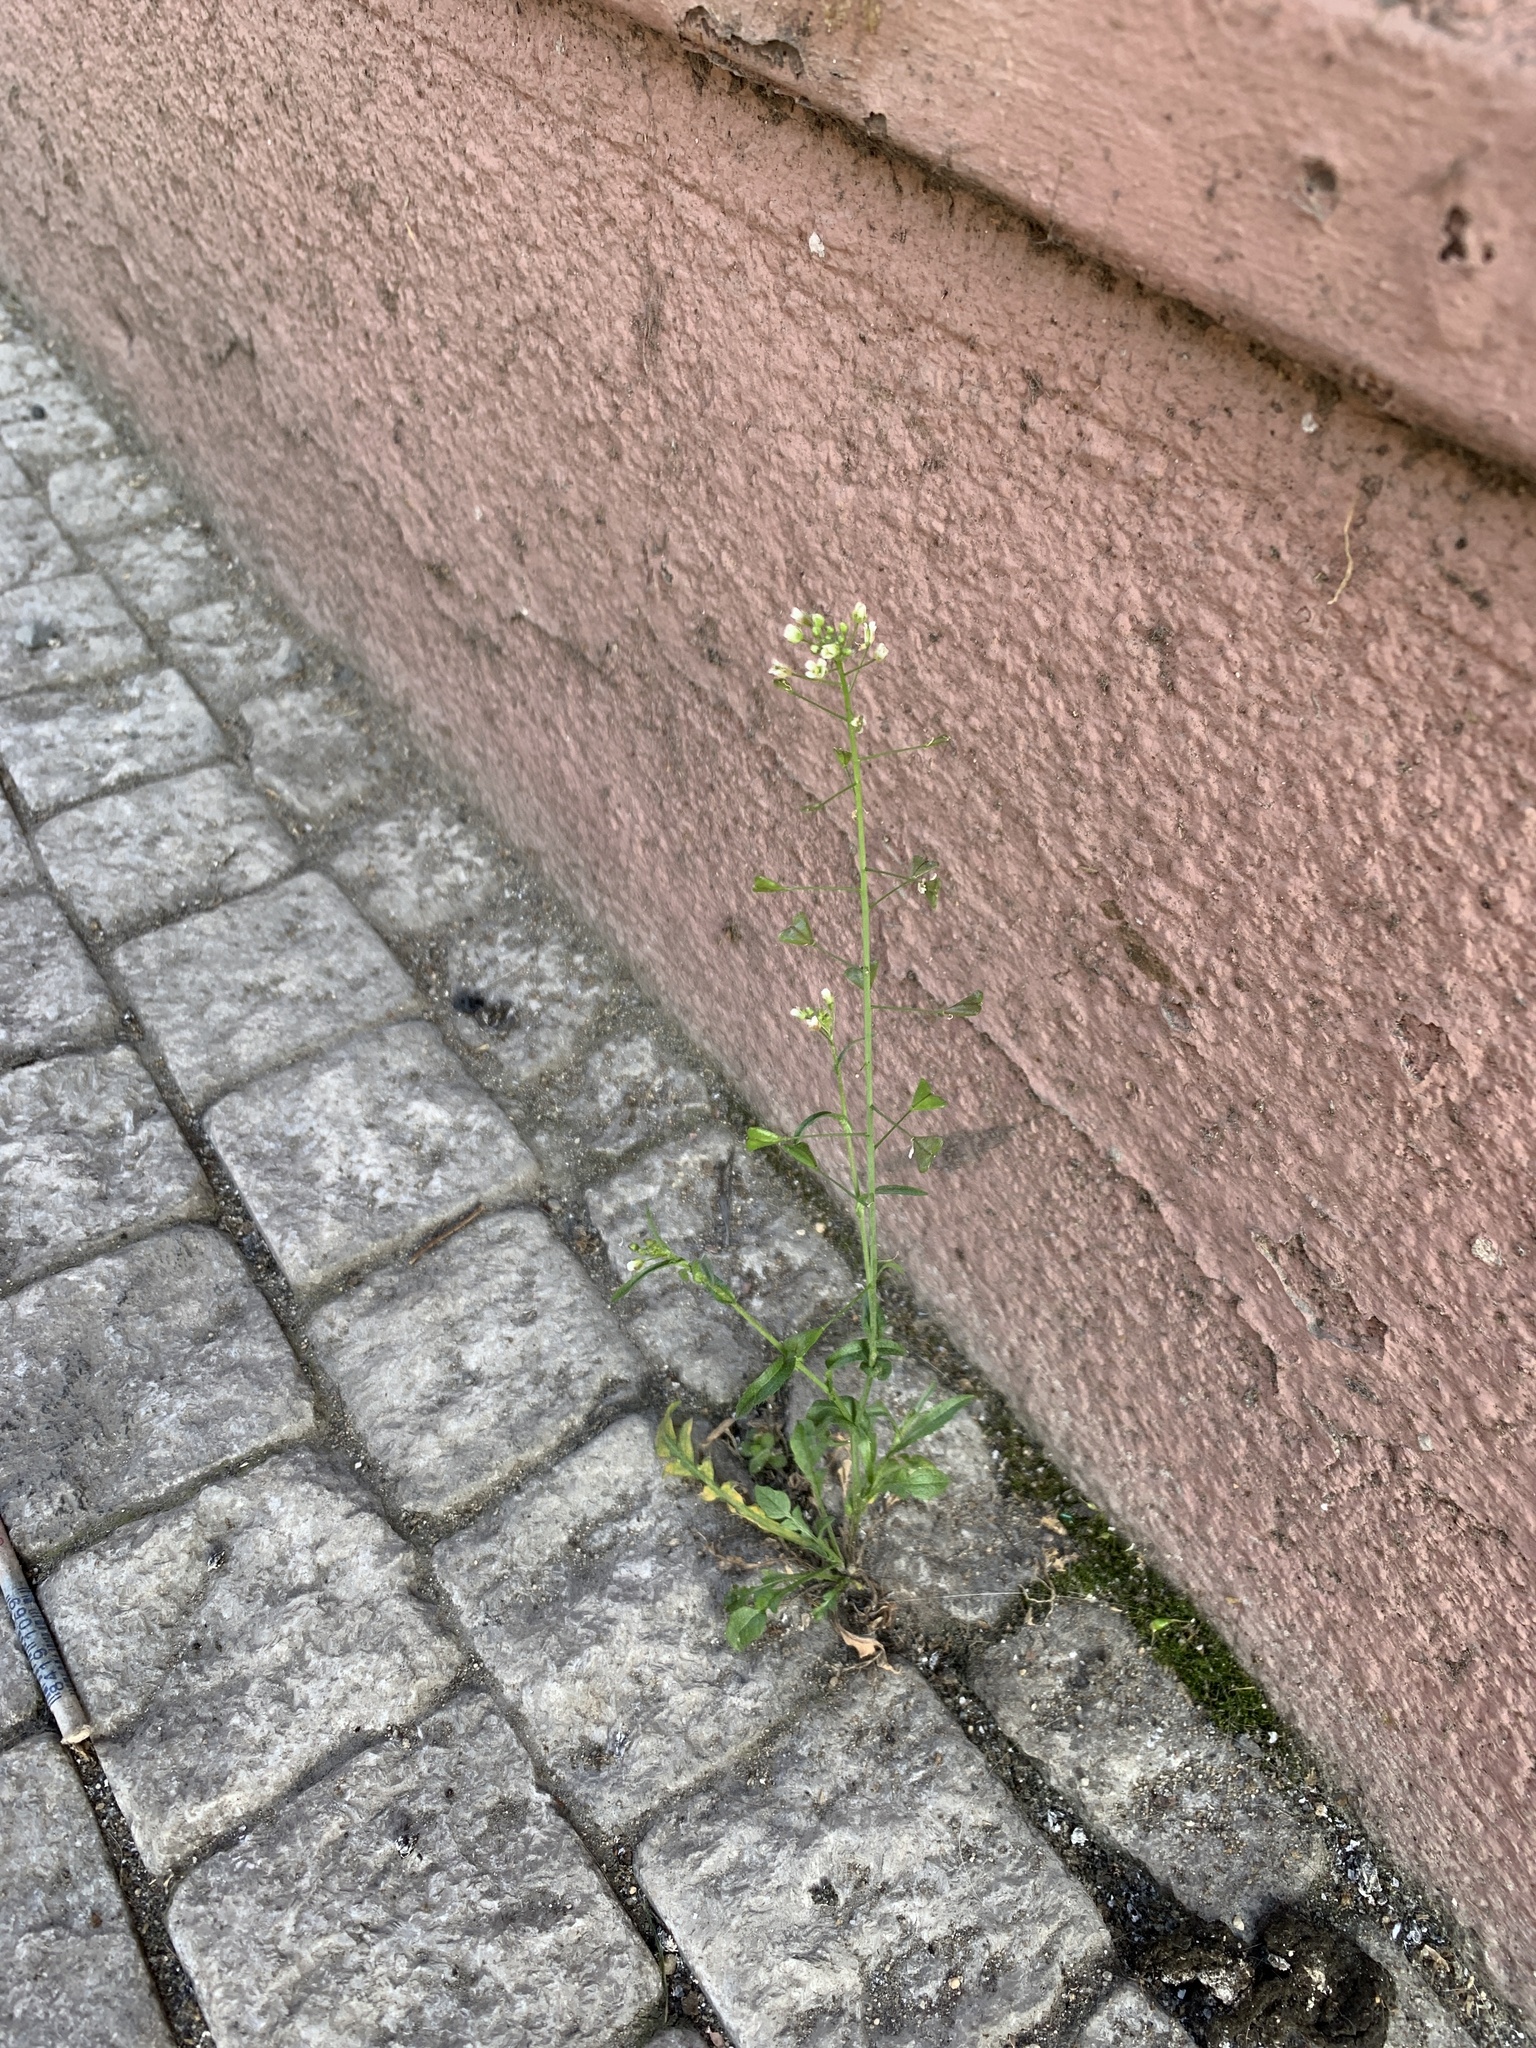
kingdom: Plantae
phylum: Tracheophyta
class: Magnoliopsida
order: Brassicales
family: Brassicaceae
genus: Capsella
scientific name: Capsella bursa-pastoris
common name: Shepherd's purse
